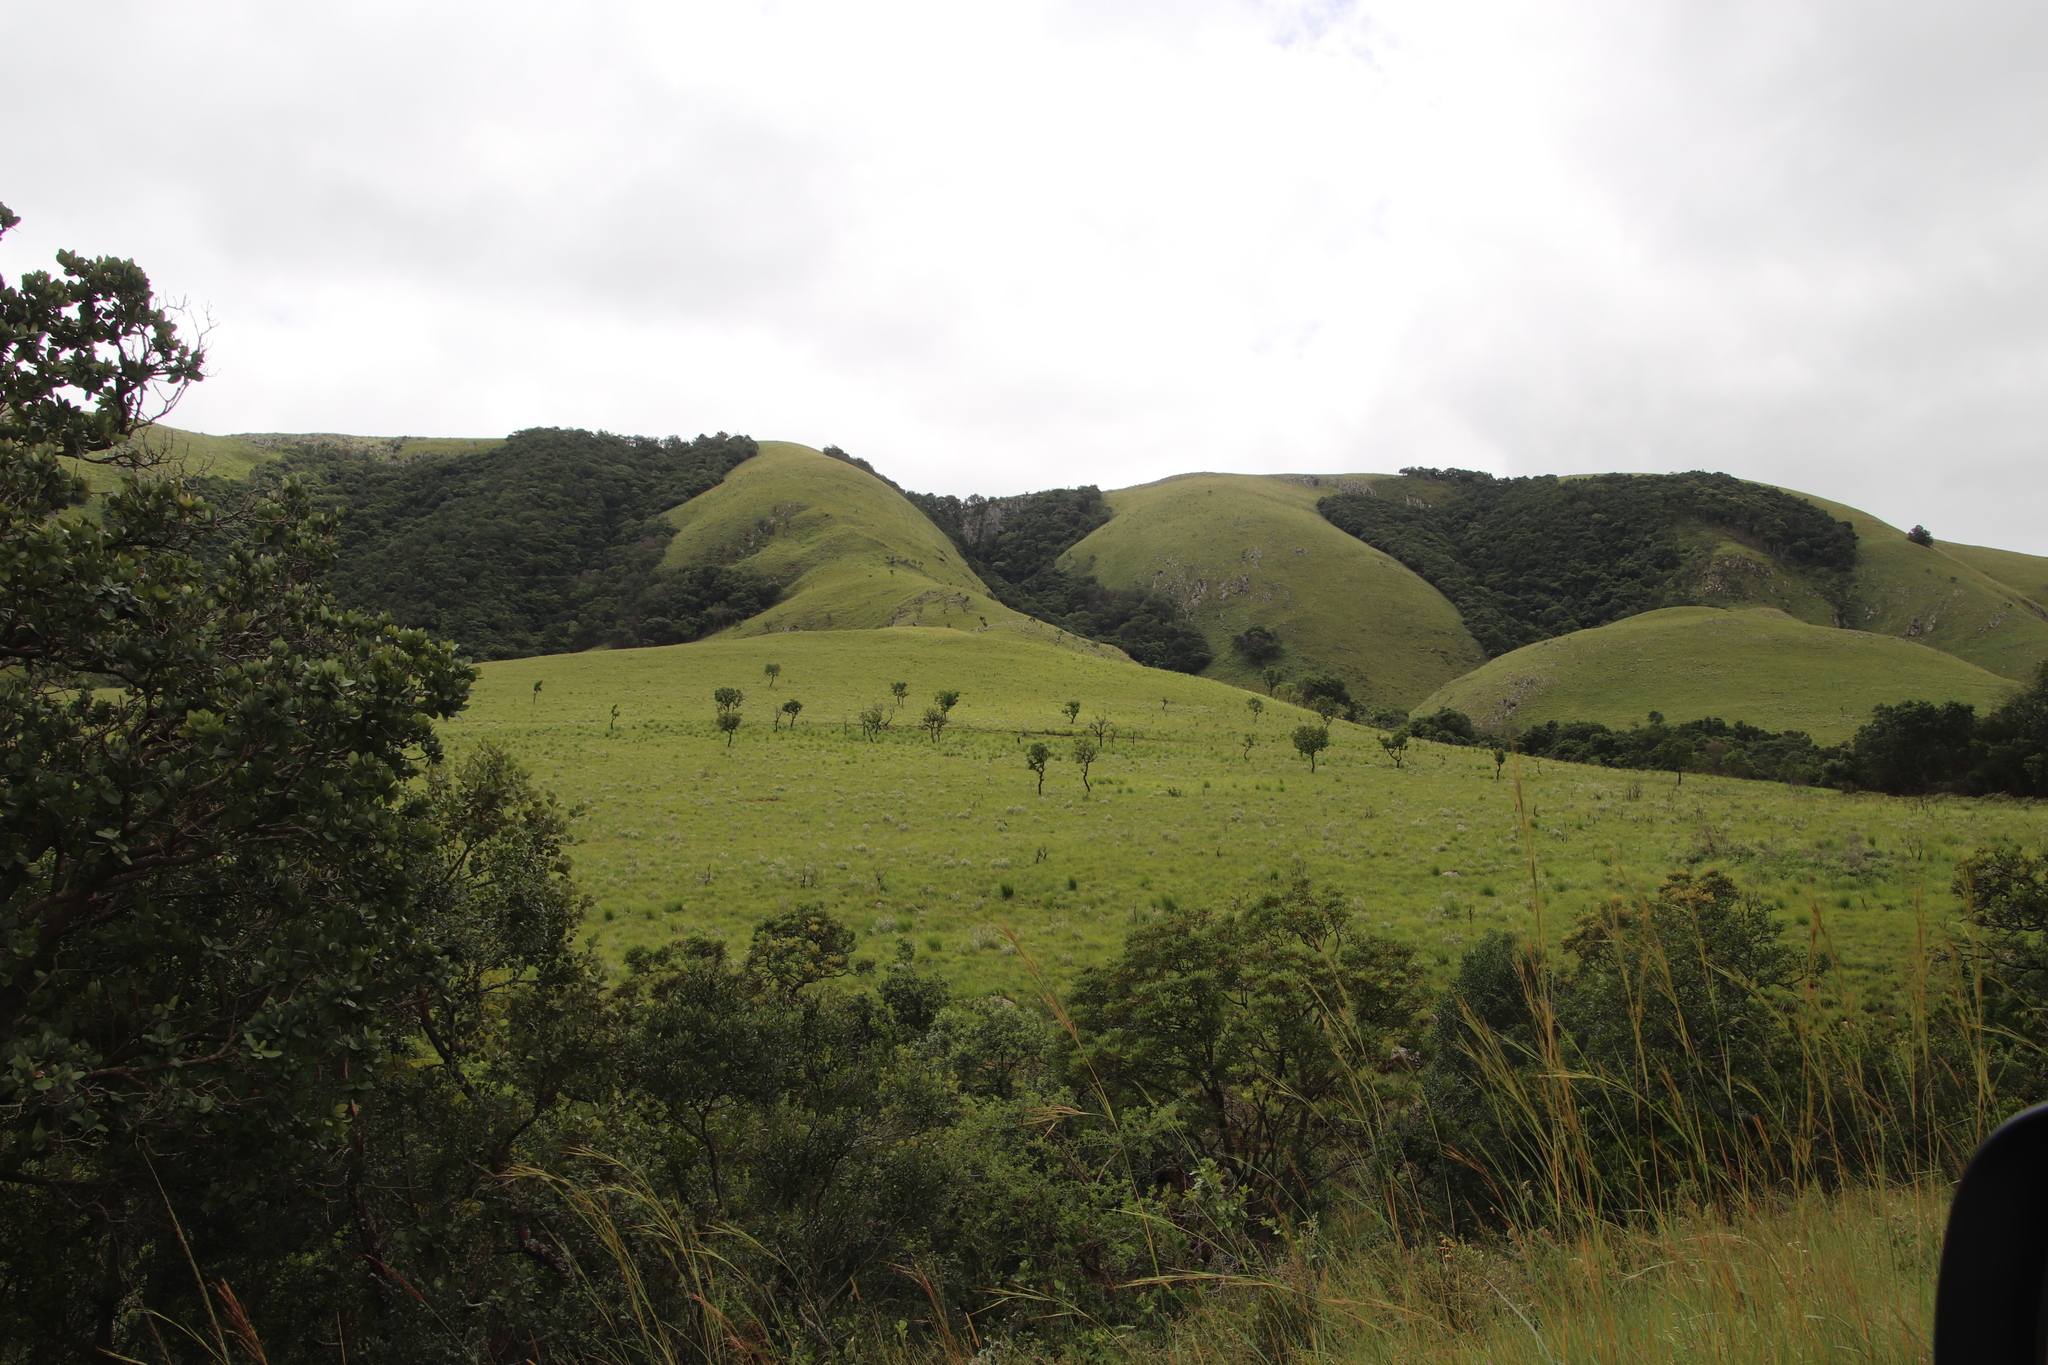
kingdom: Plantae
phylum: Tracheophyta
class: Magnoliopsida
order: Proteales
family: Proteaceae
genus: Faurea
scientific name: Faurea rochetiana
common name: Broad-leaved beech
